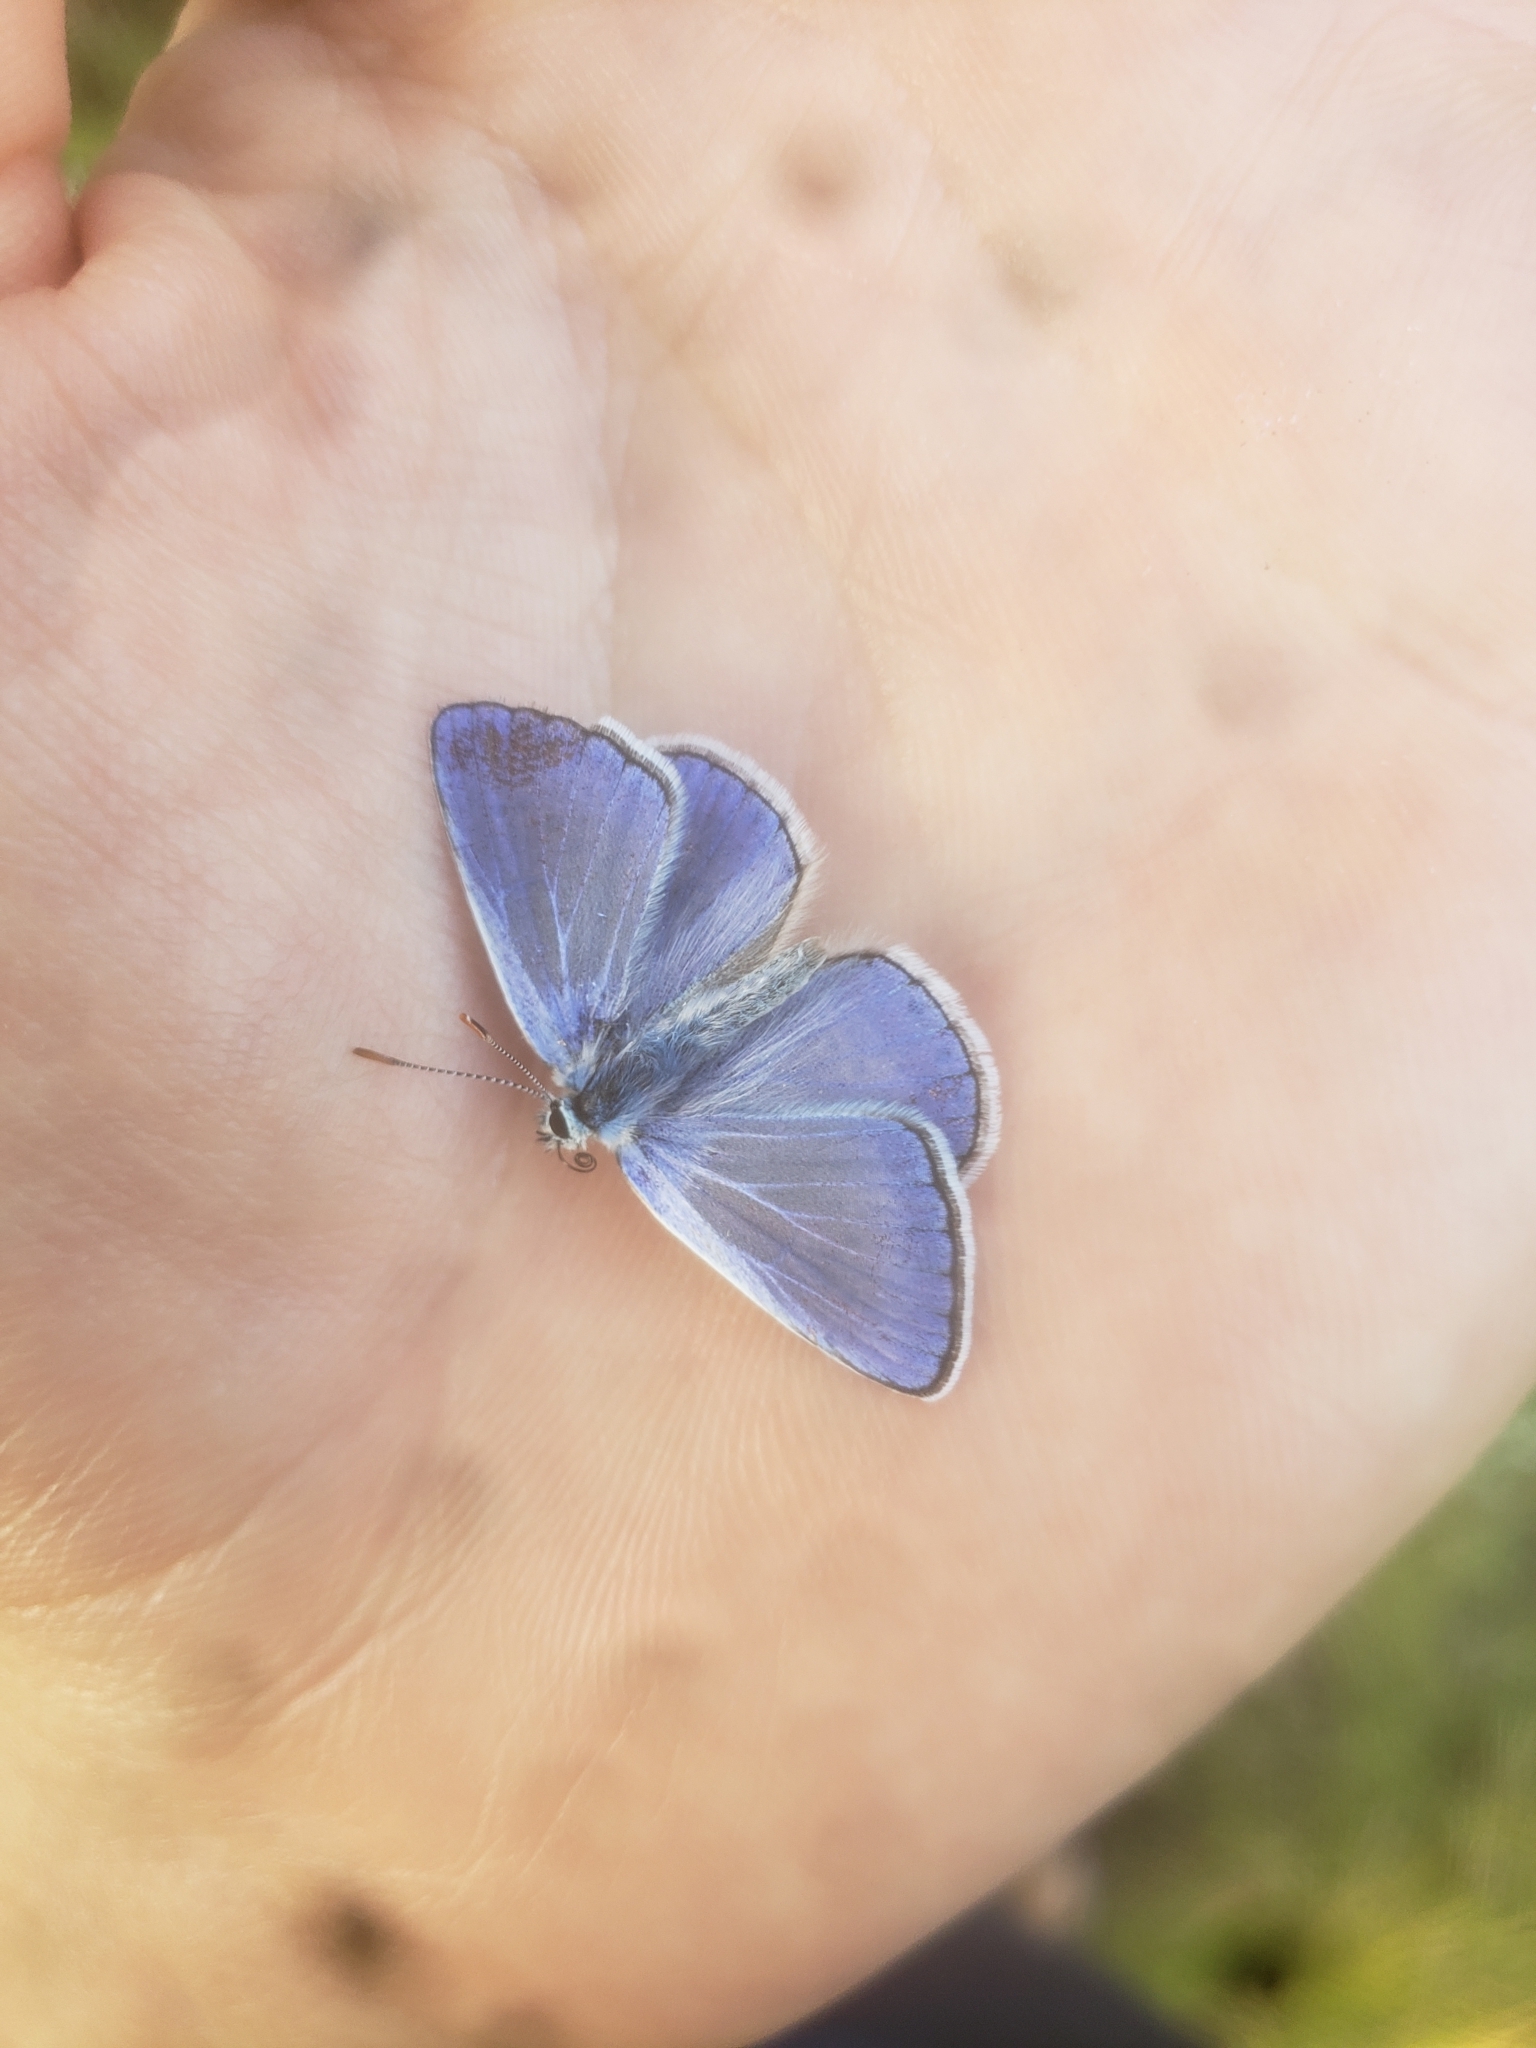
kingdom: Animalia
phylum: Arthropoda
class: Insecta
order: Lepidoptera
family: Lycaenidae
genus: Polyommatus
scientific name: Polyommatus icarus
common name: Common blue
